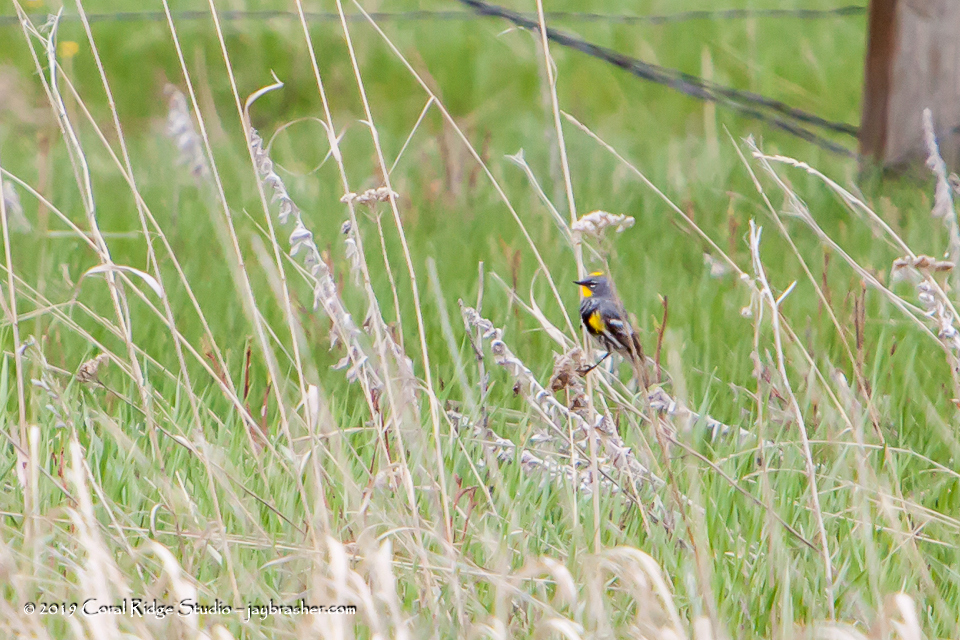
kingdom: Animalia
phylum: Chordata
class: Aves
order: Passeriformes
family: Parulidae
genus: Setophaga
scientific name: Setophaga auduboni
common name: Audubon's warbler
